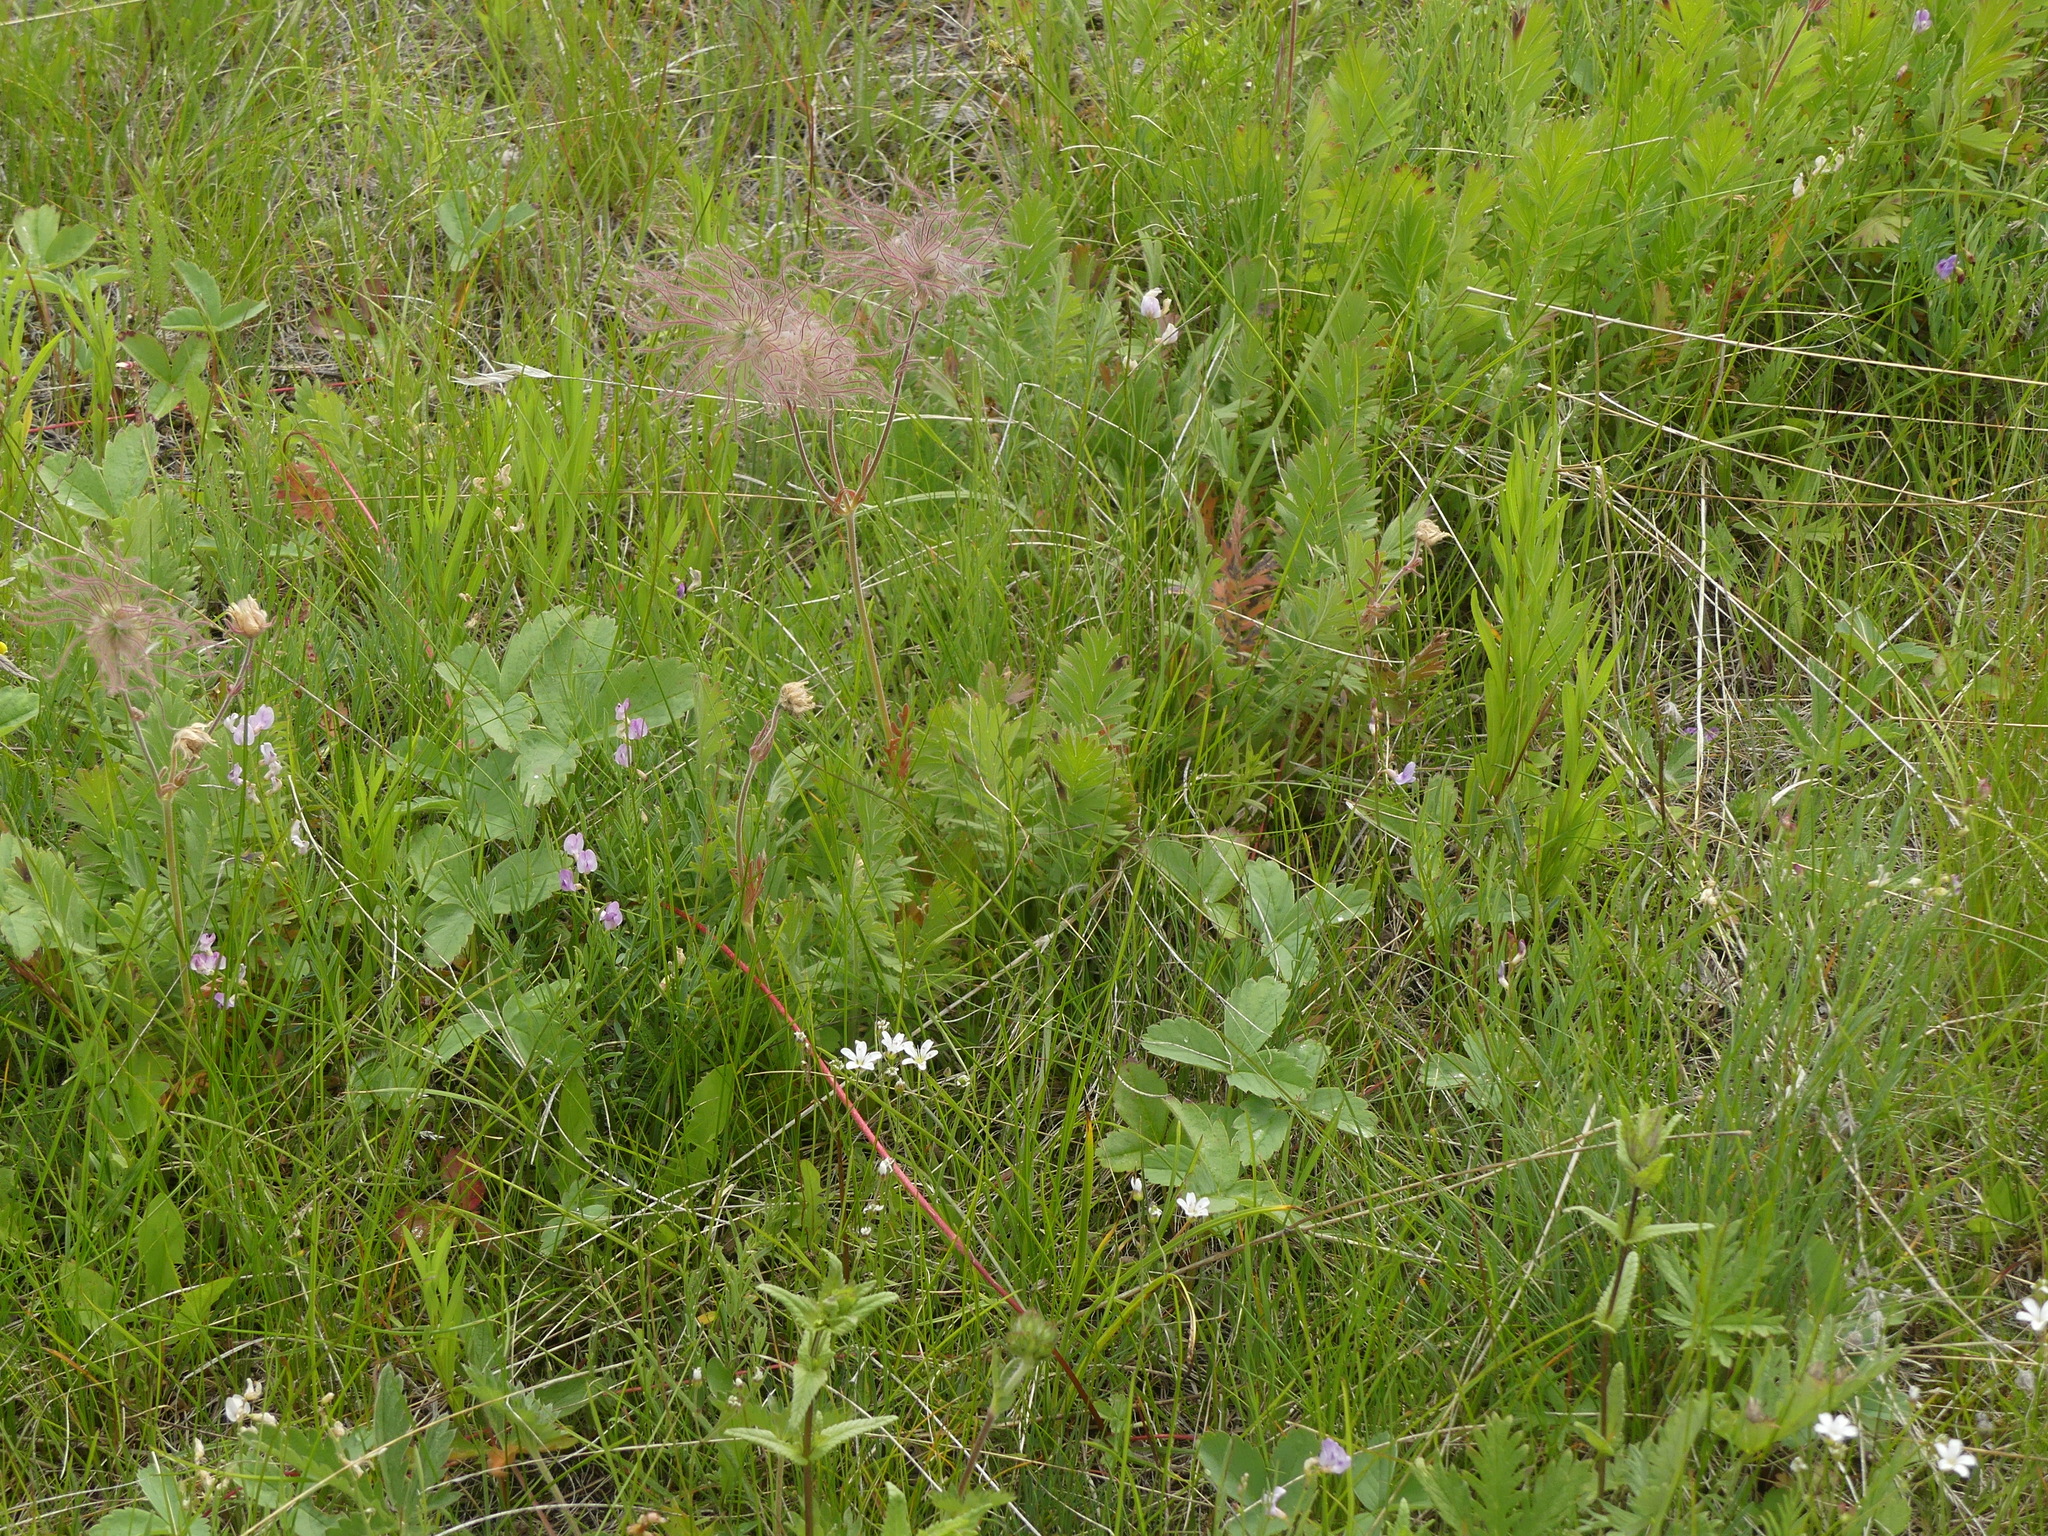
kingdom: Plantae
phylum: Tracheophyta
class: Magnoliopsida
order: Rosales
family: Rosaceae
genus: Geum
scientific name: Geum triflorum
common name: Old man's whiskers
